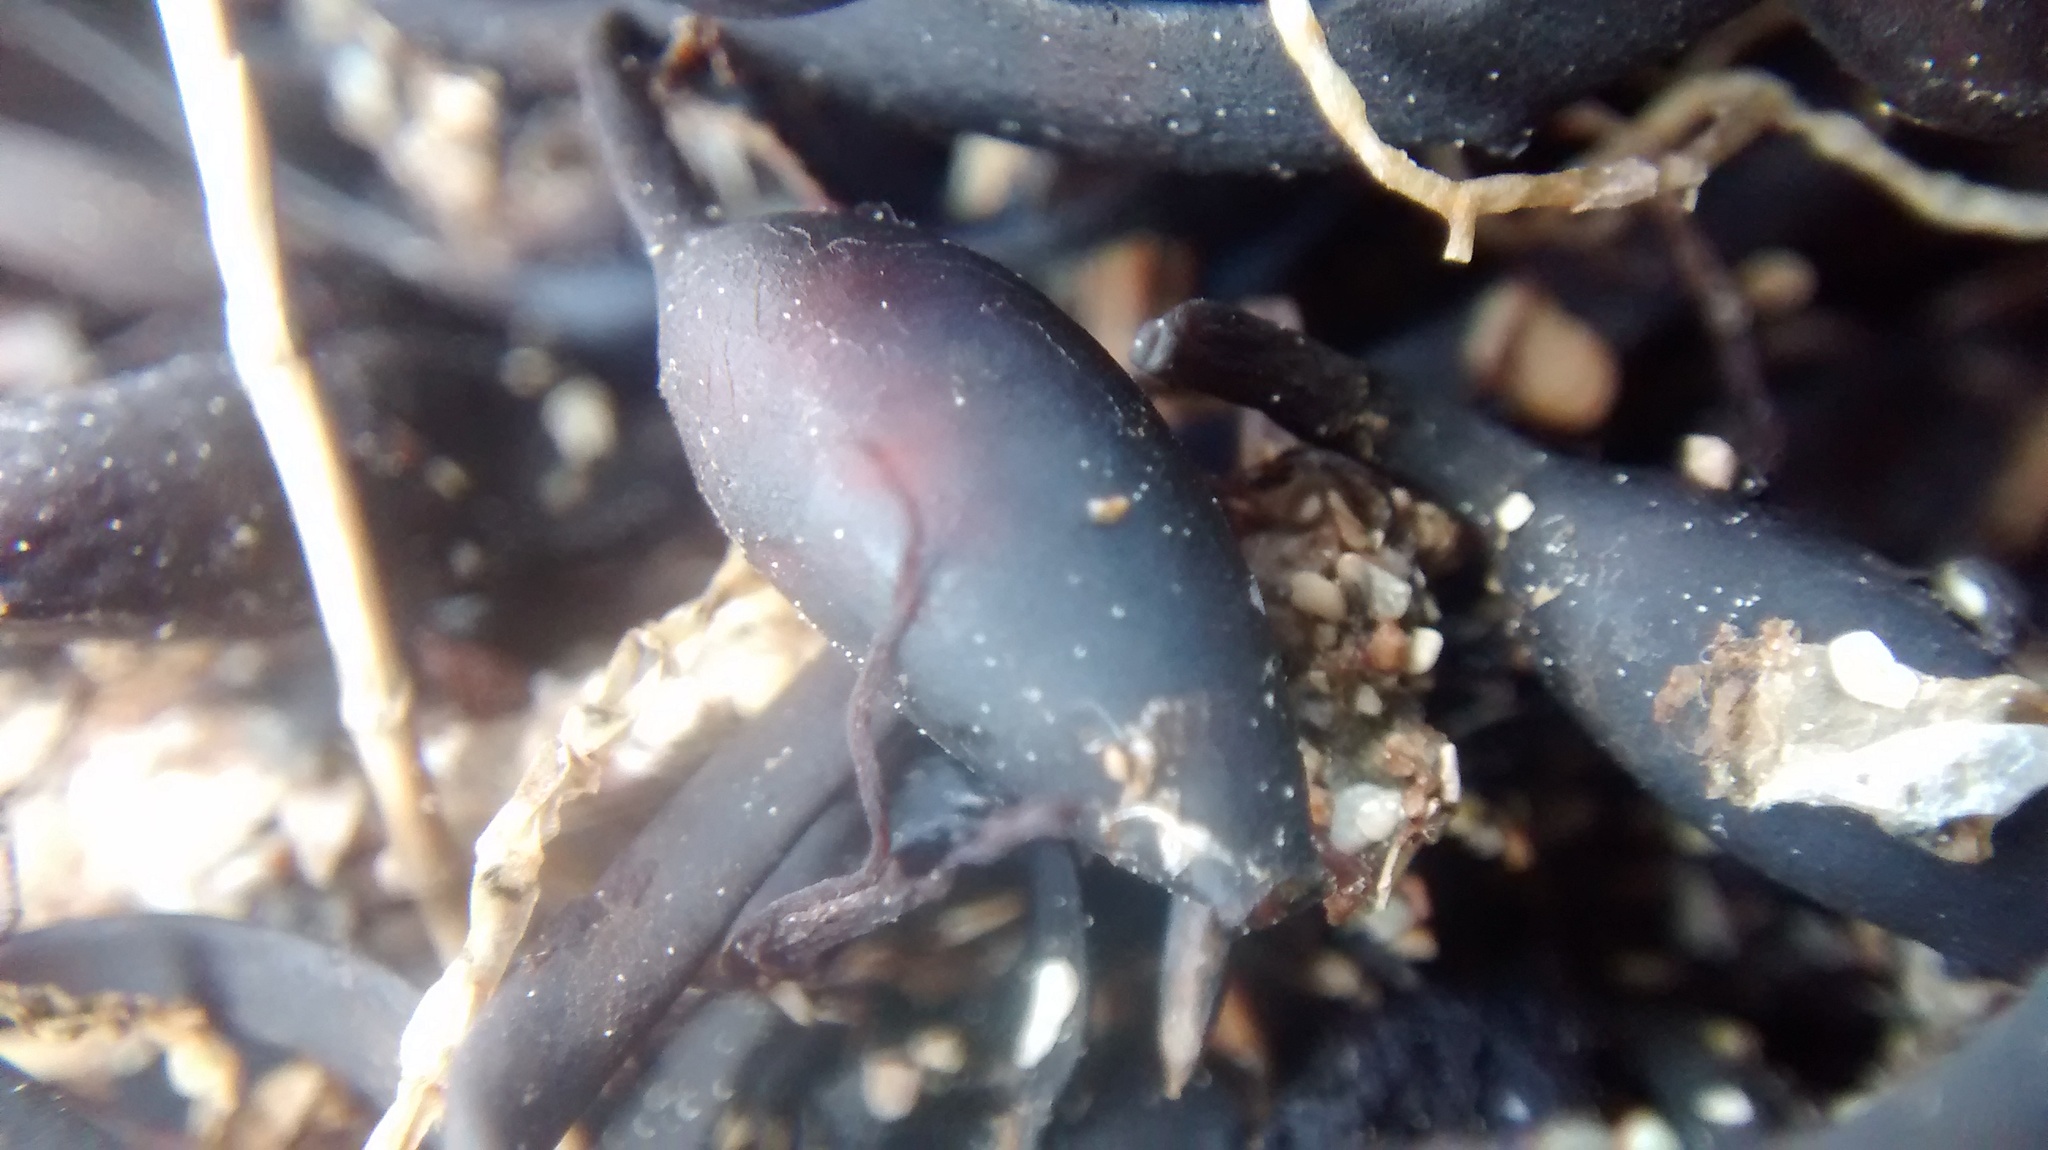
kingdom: Chromista
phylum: Ochrophyta
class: Phaeophyceae
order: Fucales
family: Fucaceae
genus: Ascophyllum
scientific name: Ascophyllum nodosum
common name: Knotted wrack
